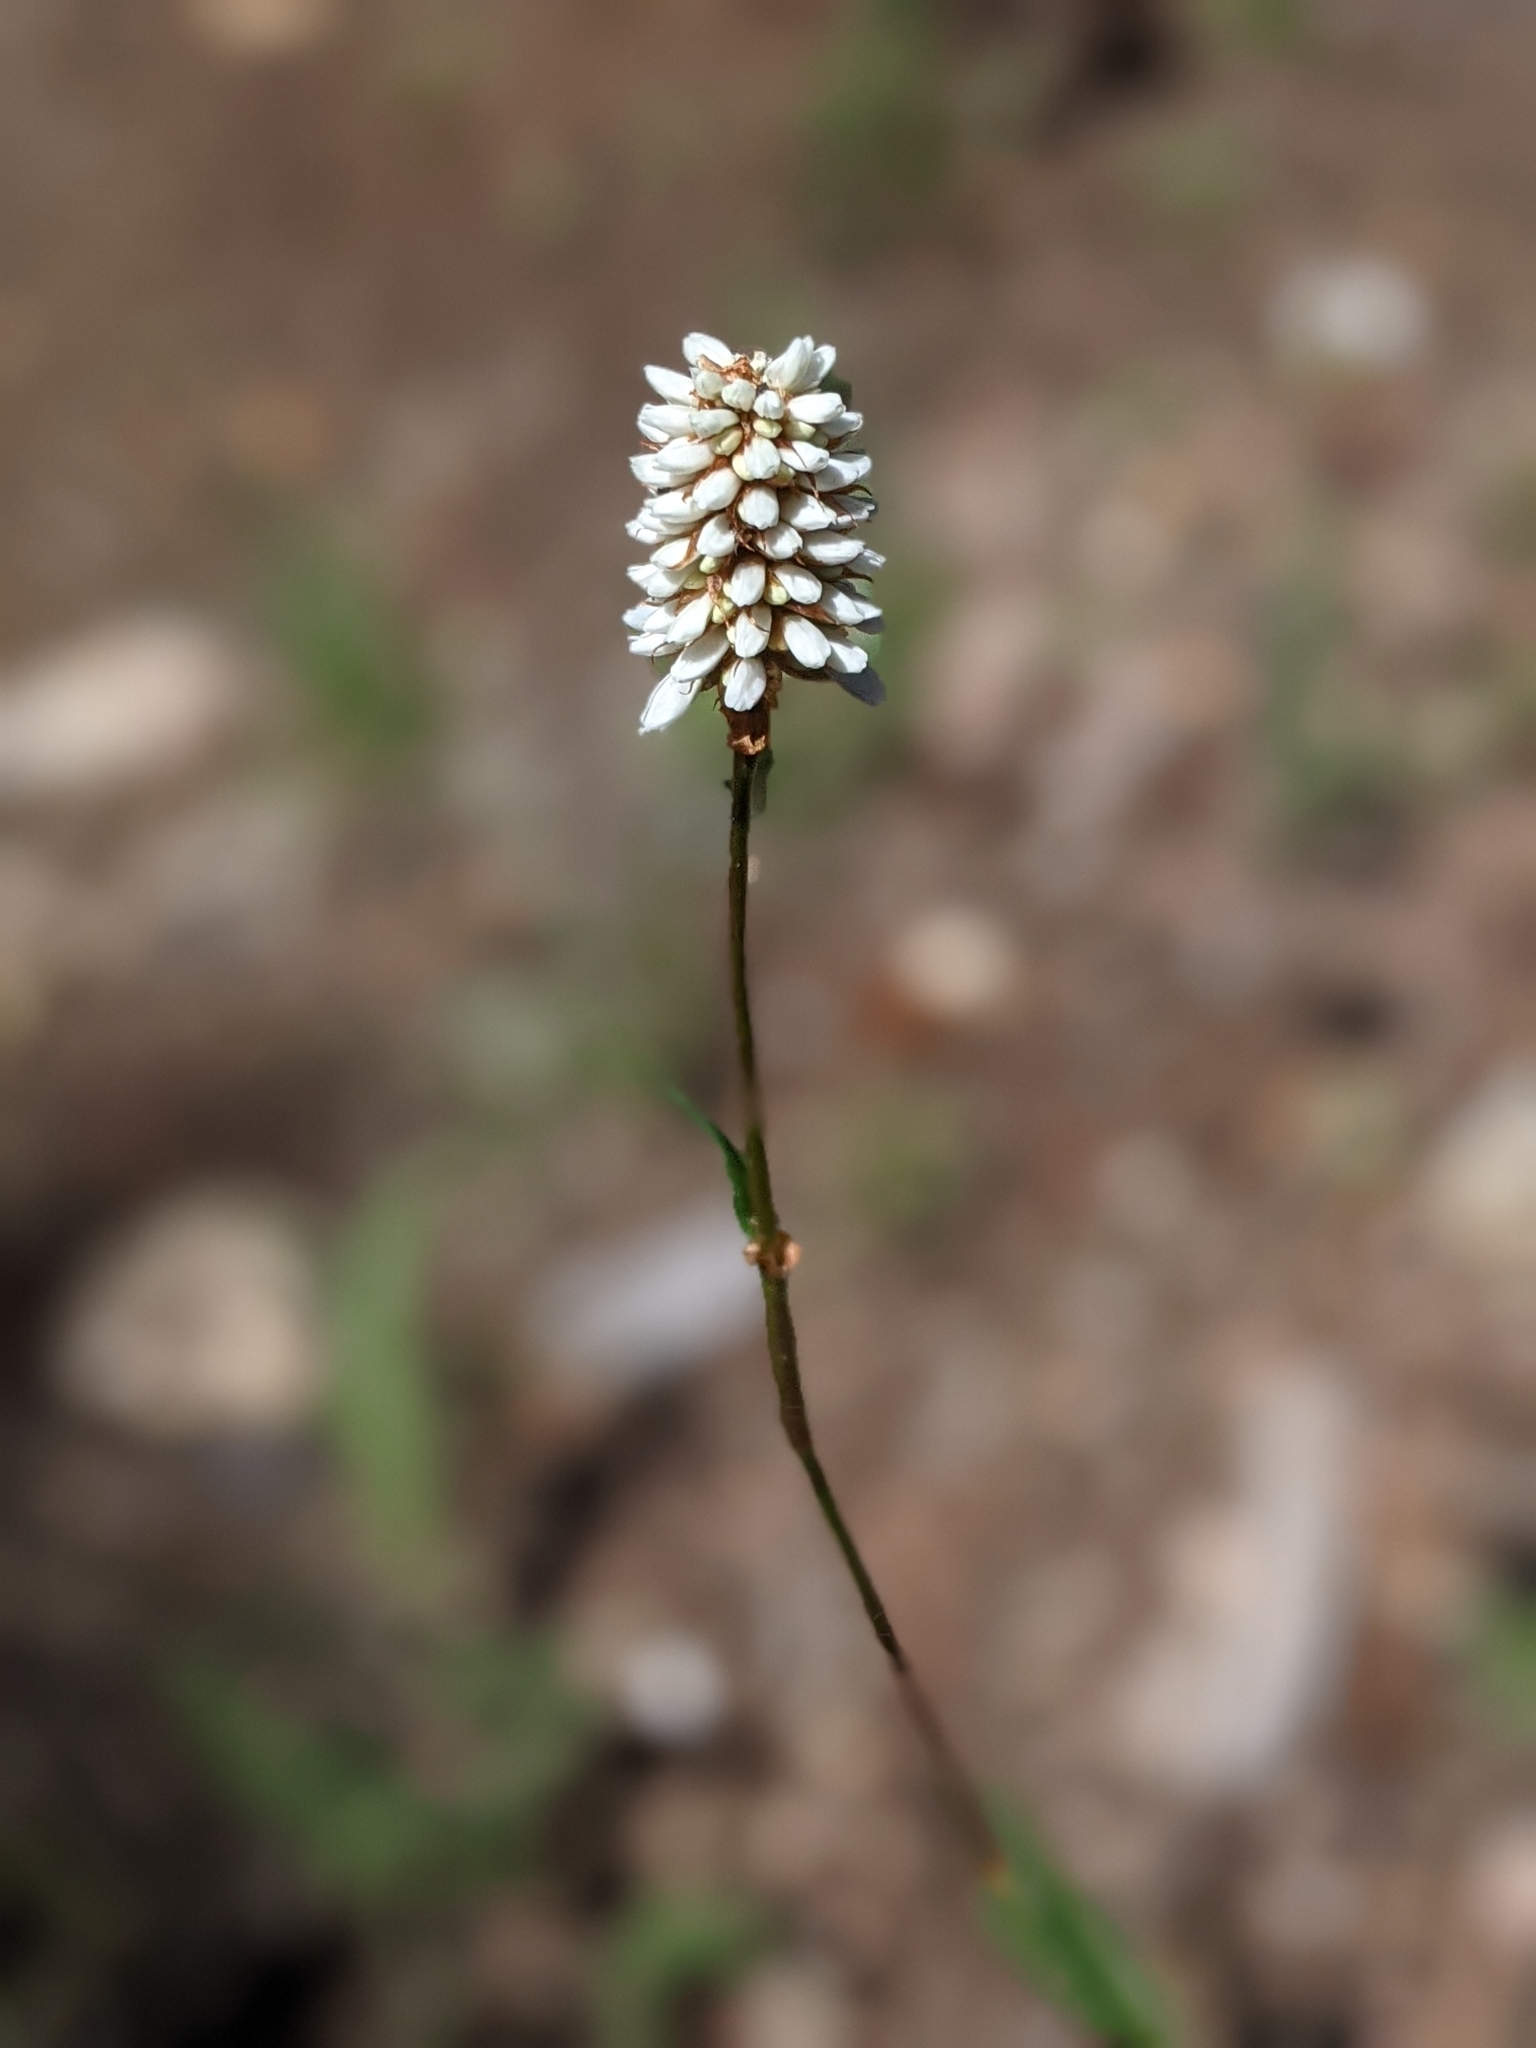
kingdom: Plantae
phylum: Tracheophyta
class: Magnoliopsida
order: Caryophyllales
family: Polygonaceae
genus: Bistorta
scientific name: Bistorta bistortoides
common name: American bistort
